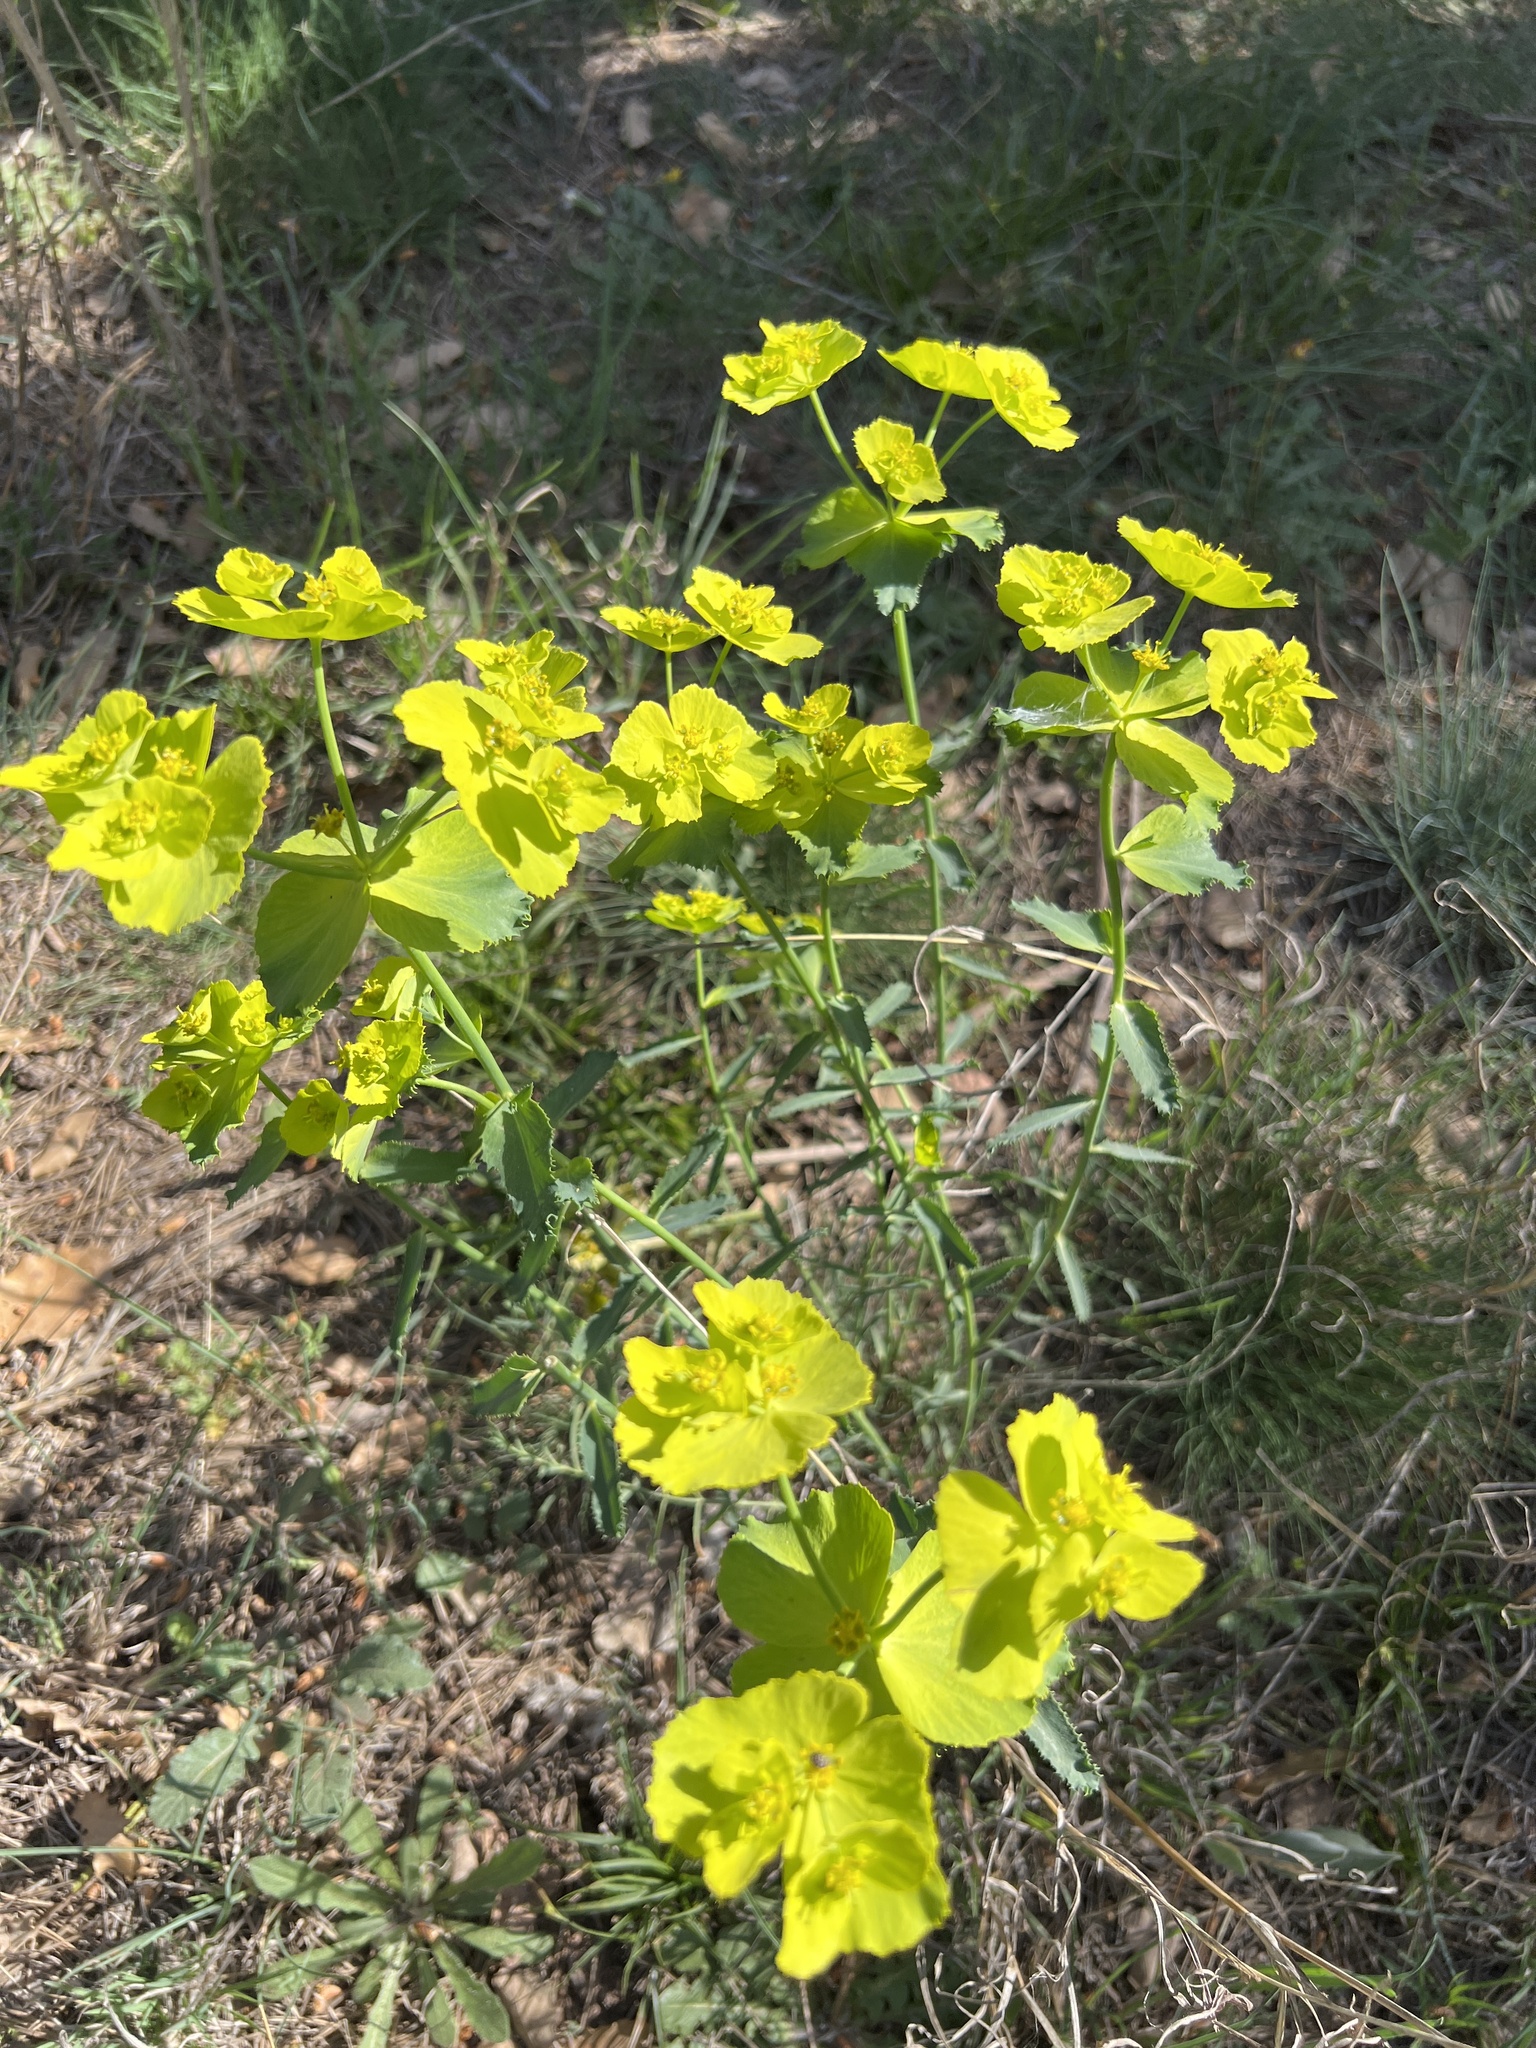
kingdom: Plantae
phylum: Tracheophyta
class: Magnoliopsida
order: Malpighiales
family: Euphorbiaceae
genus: Euphorbia
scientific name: Euphorbia serrata
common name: Serrate spurge
